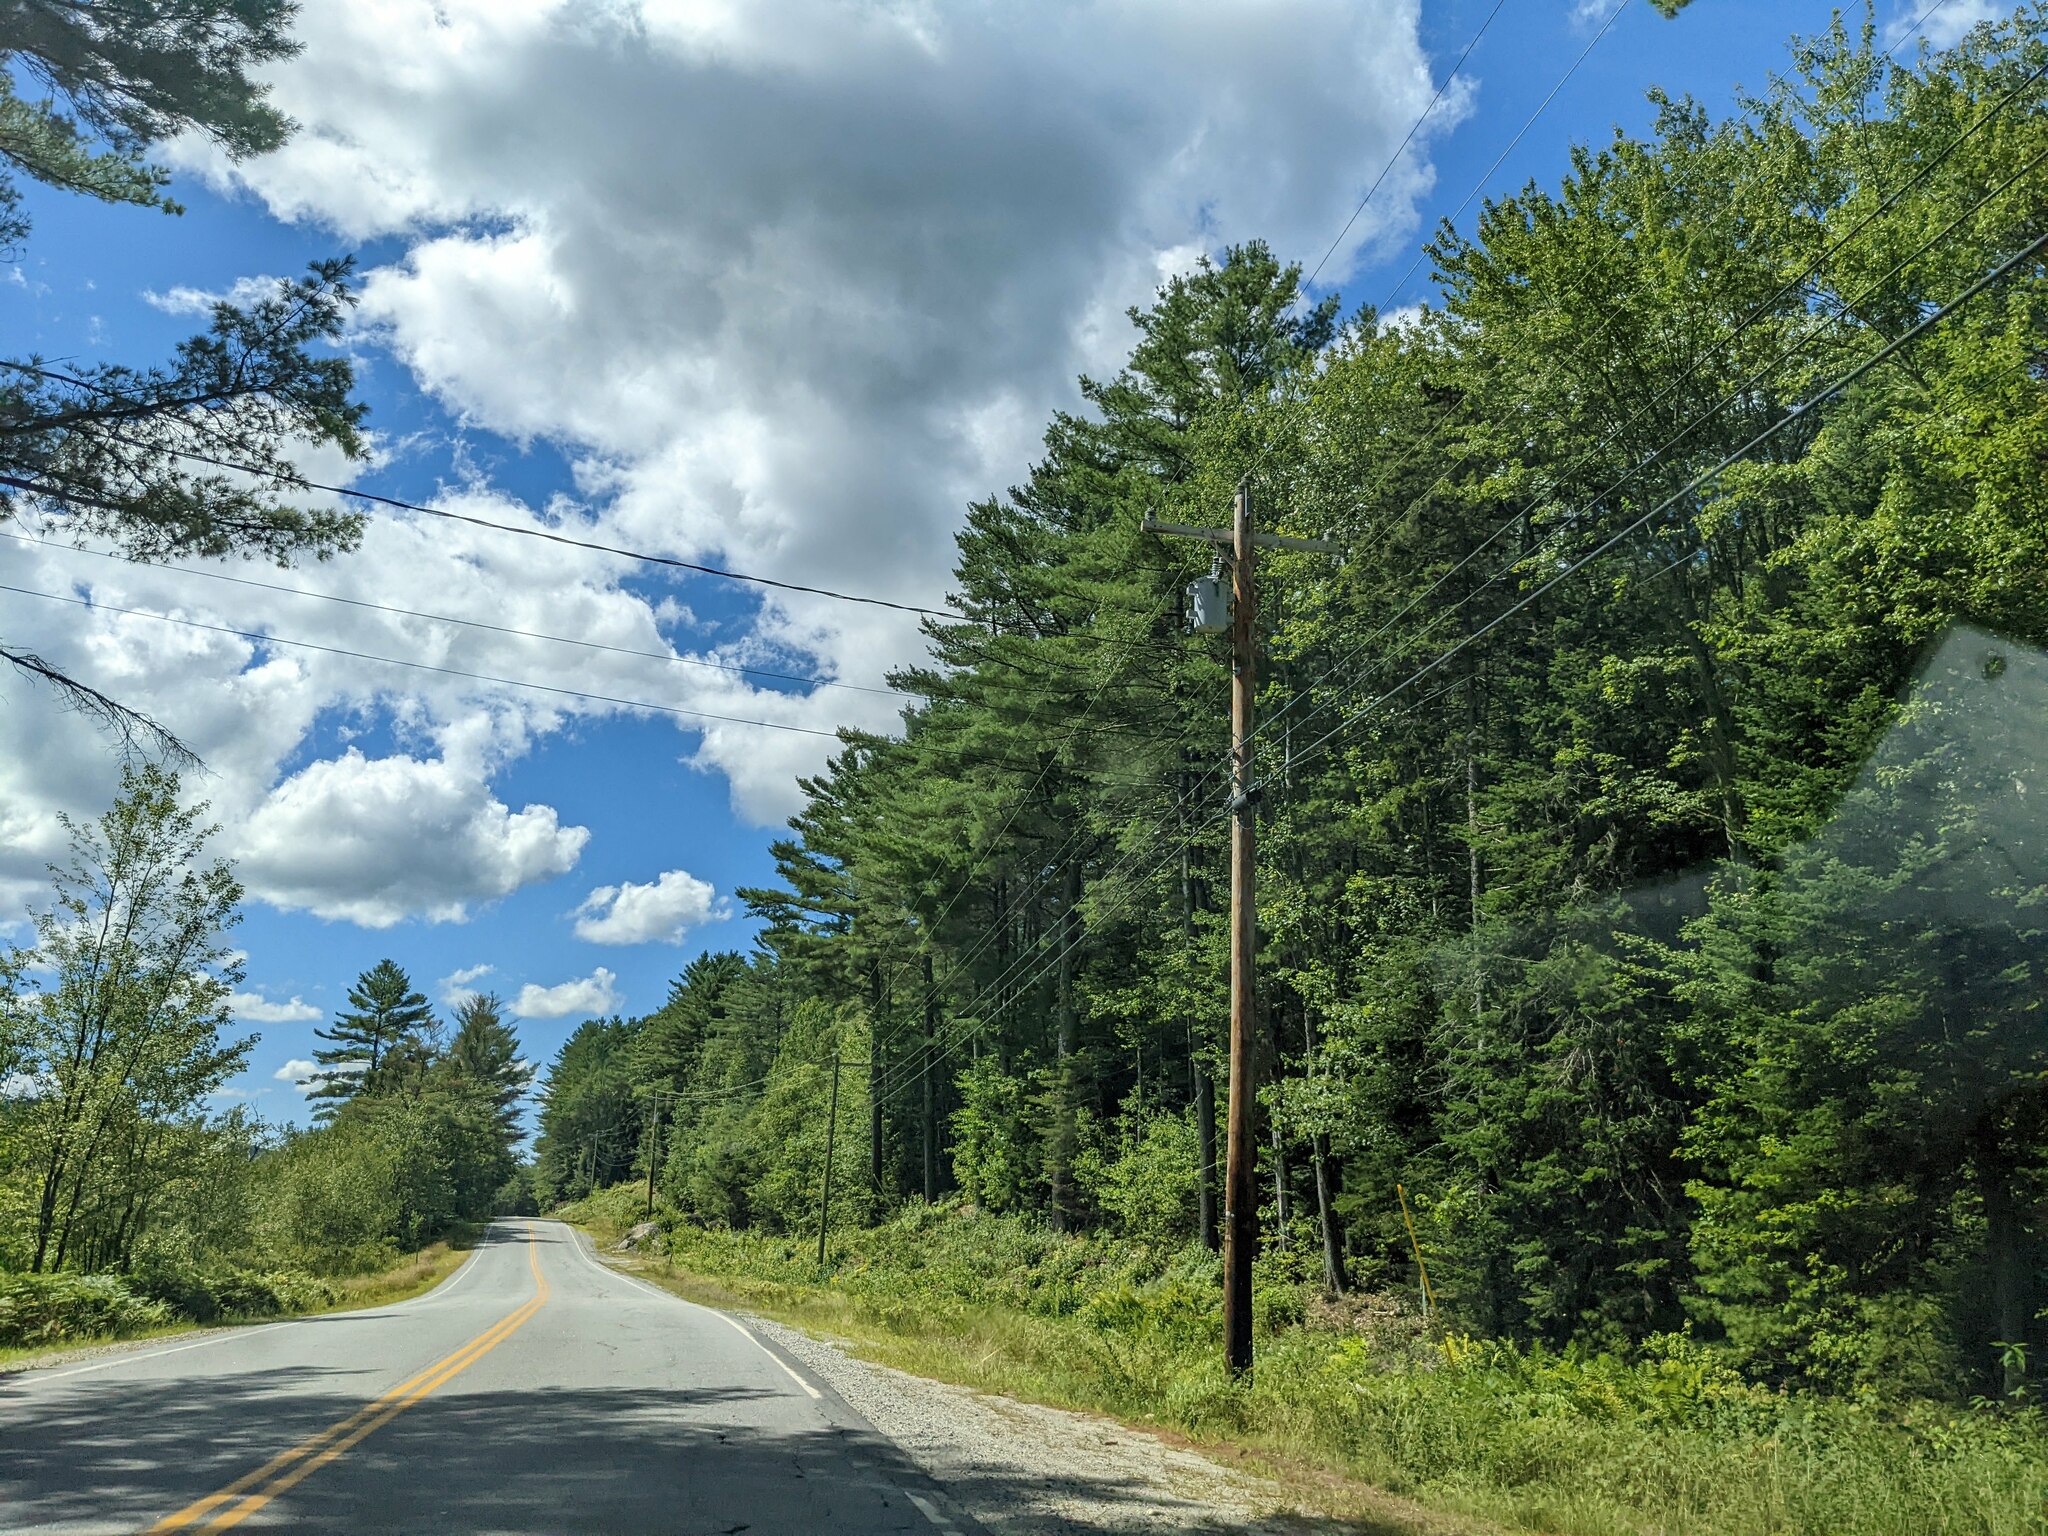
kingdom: Plantae
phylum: Tracheophyta
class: Pinopsida
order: Pinales
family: Pinaceae
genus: Pinus
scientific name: Pinus strobus
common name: Weymouth pine
